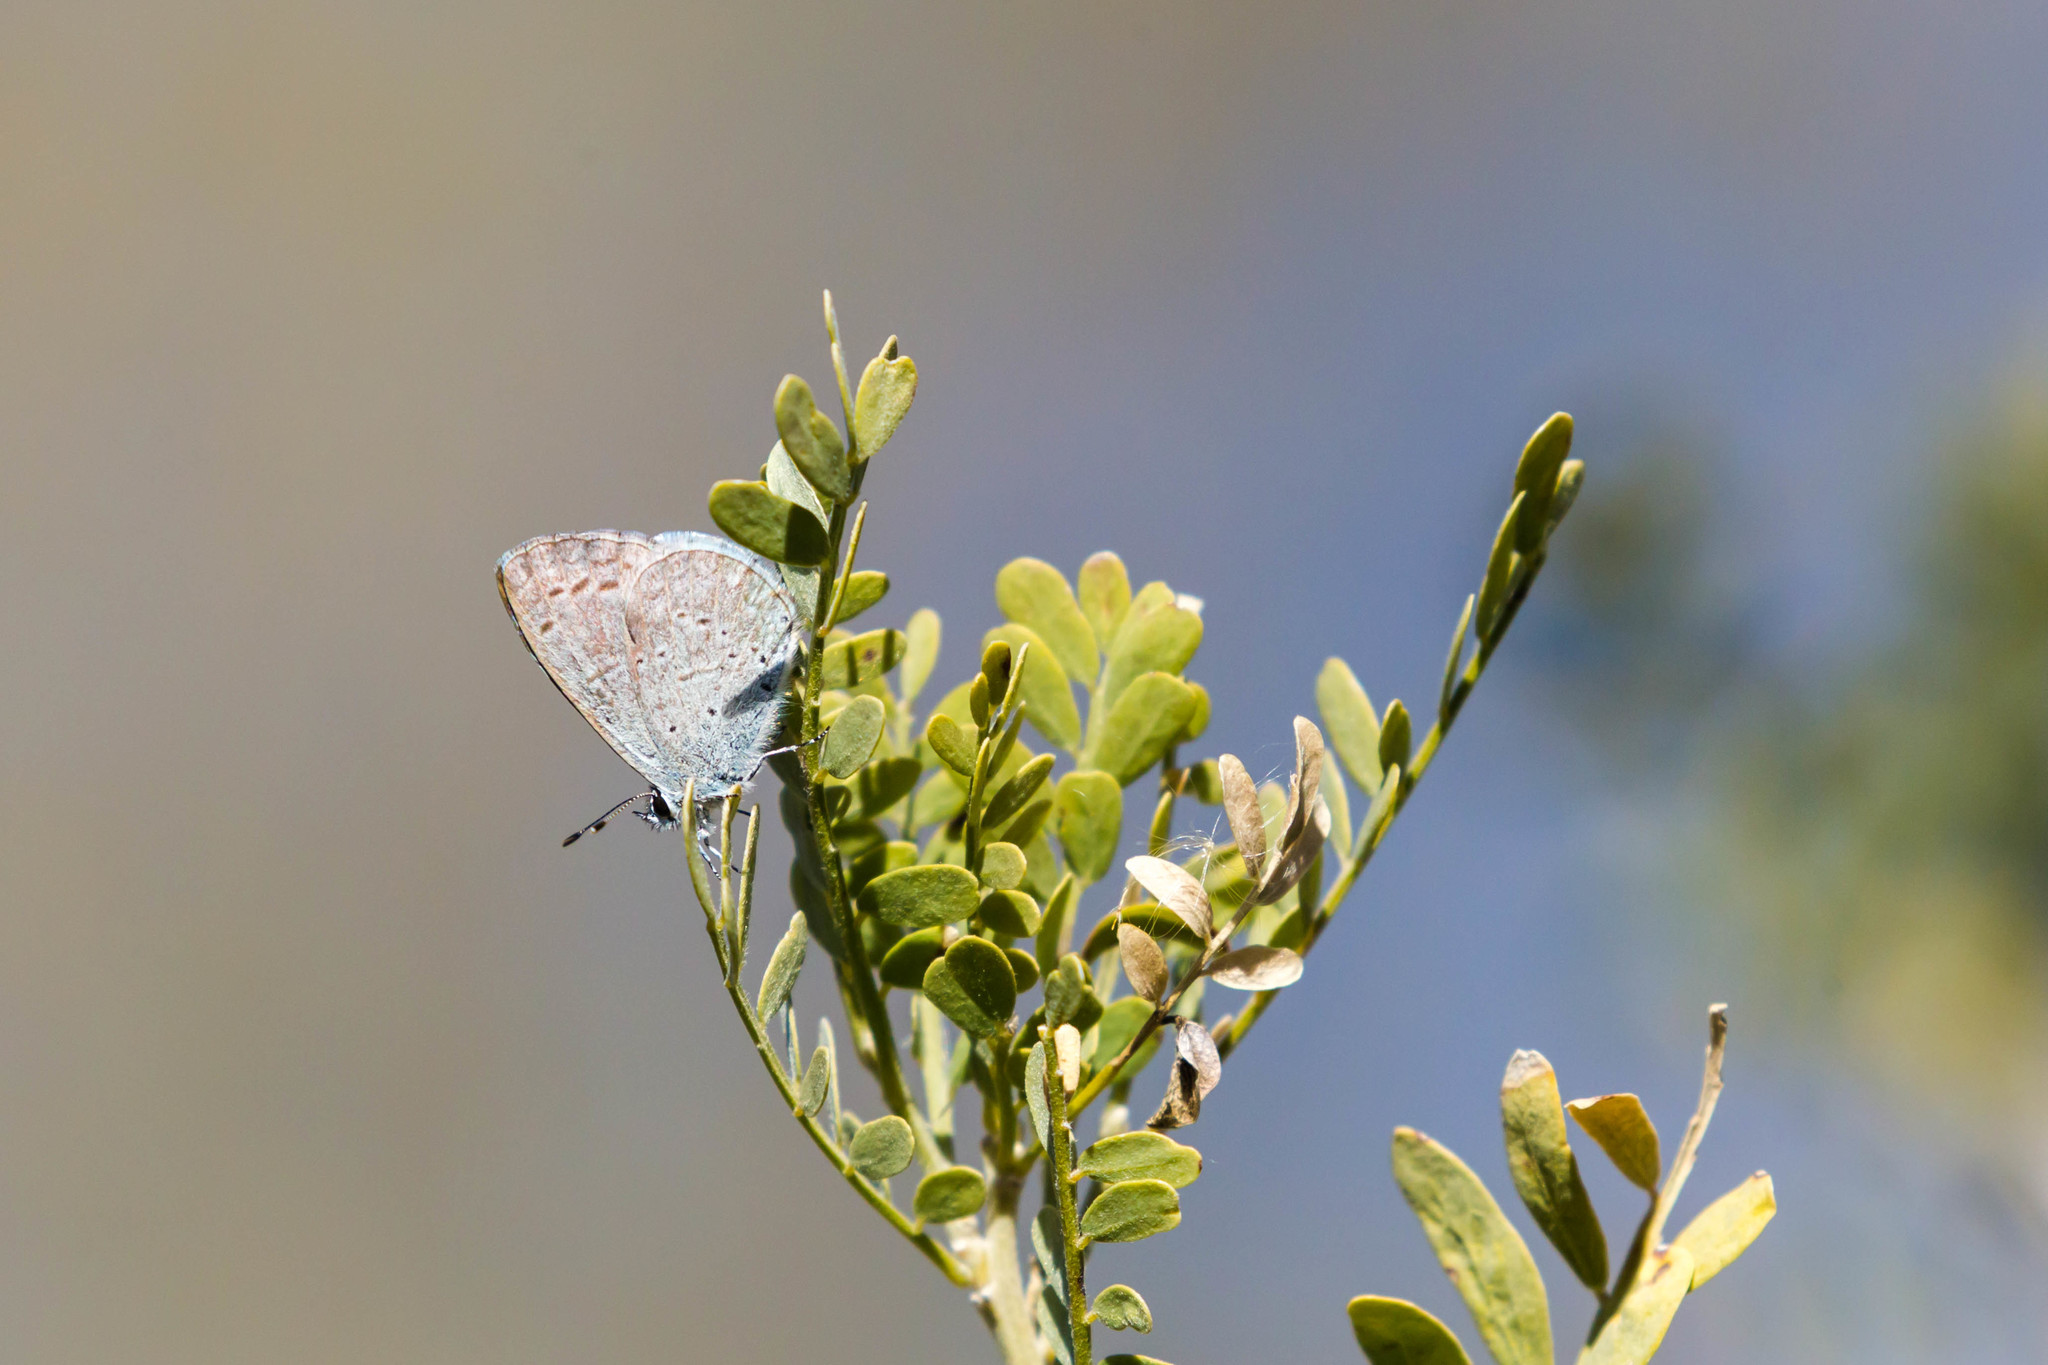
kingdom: Animalia
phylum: Arthropoda
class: Insecta
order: Lepidoptera
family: Lycaenidae
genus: Celastrina
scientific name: Celastrina ladon
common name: Spring azure
